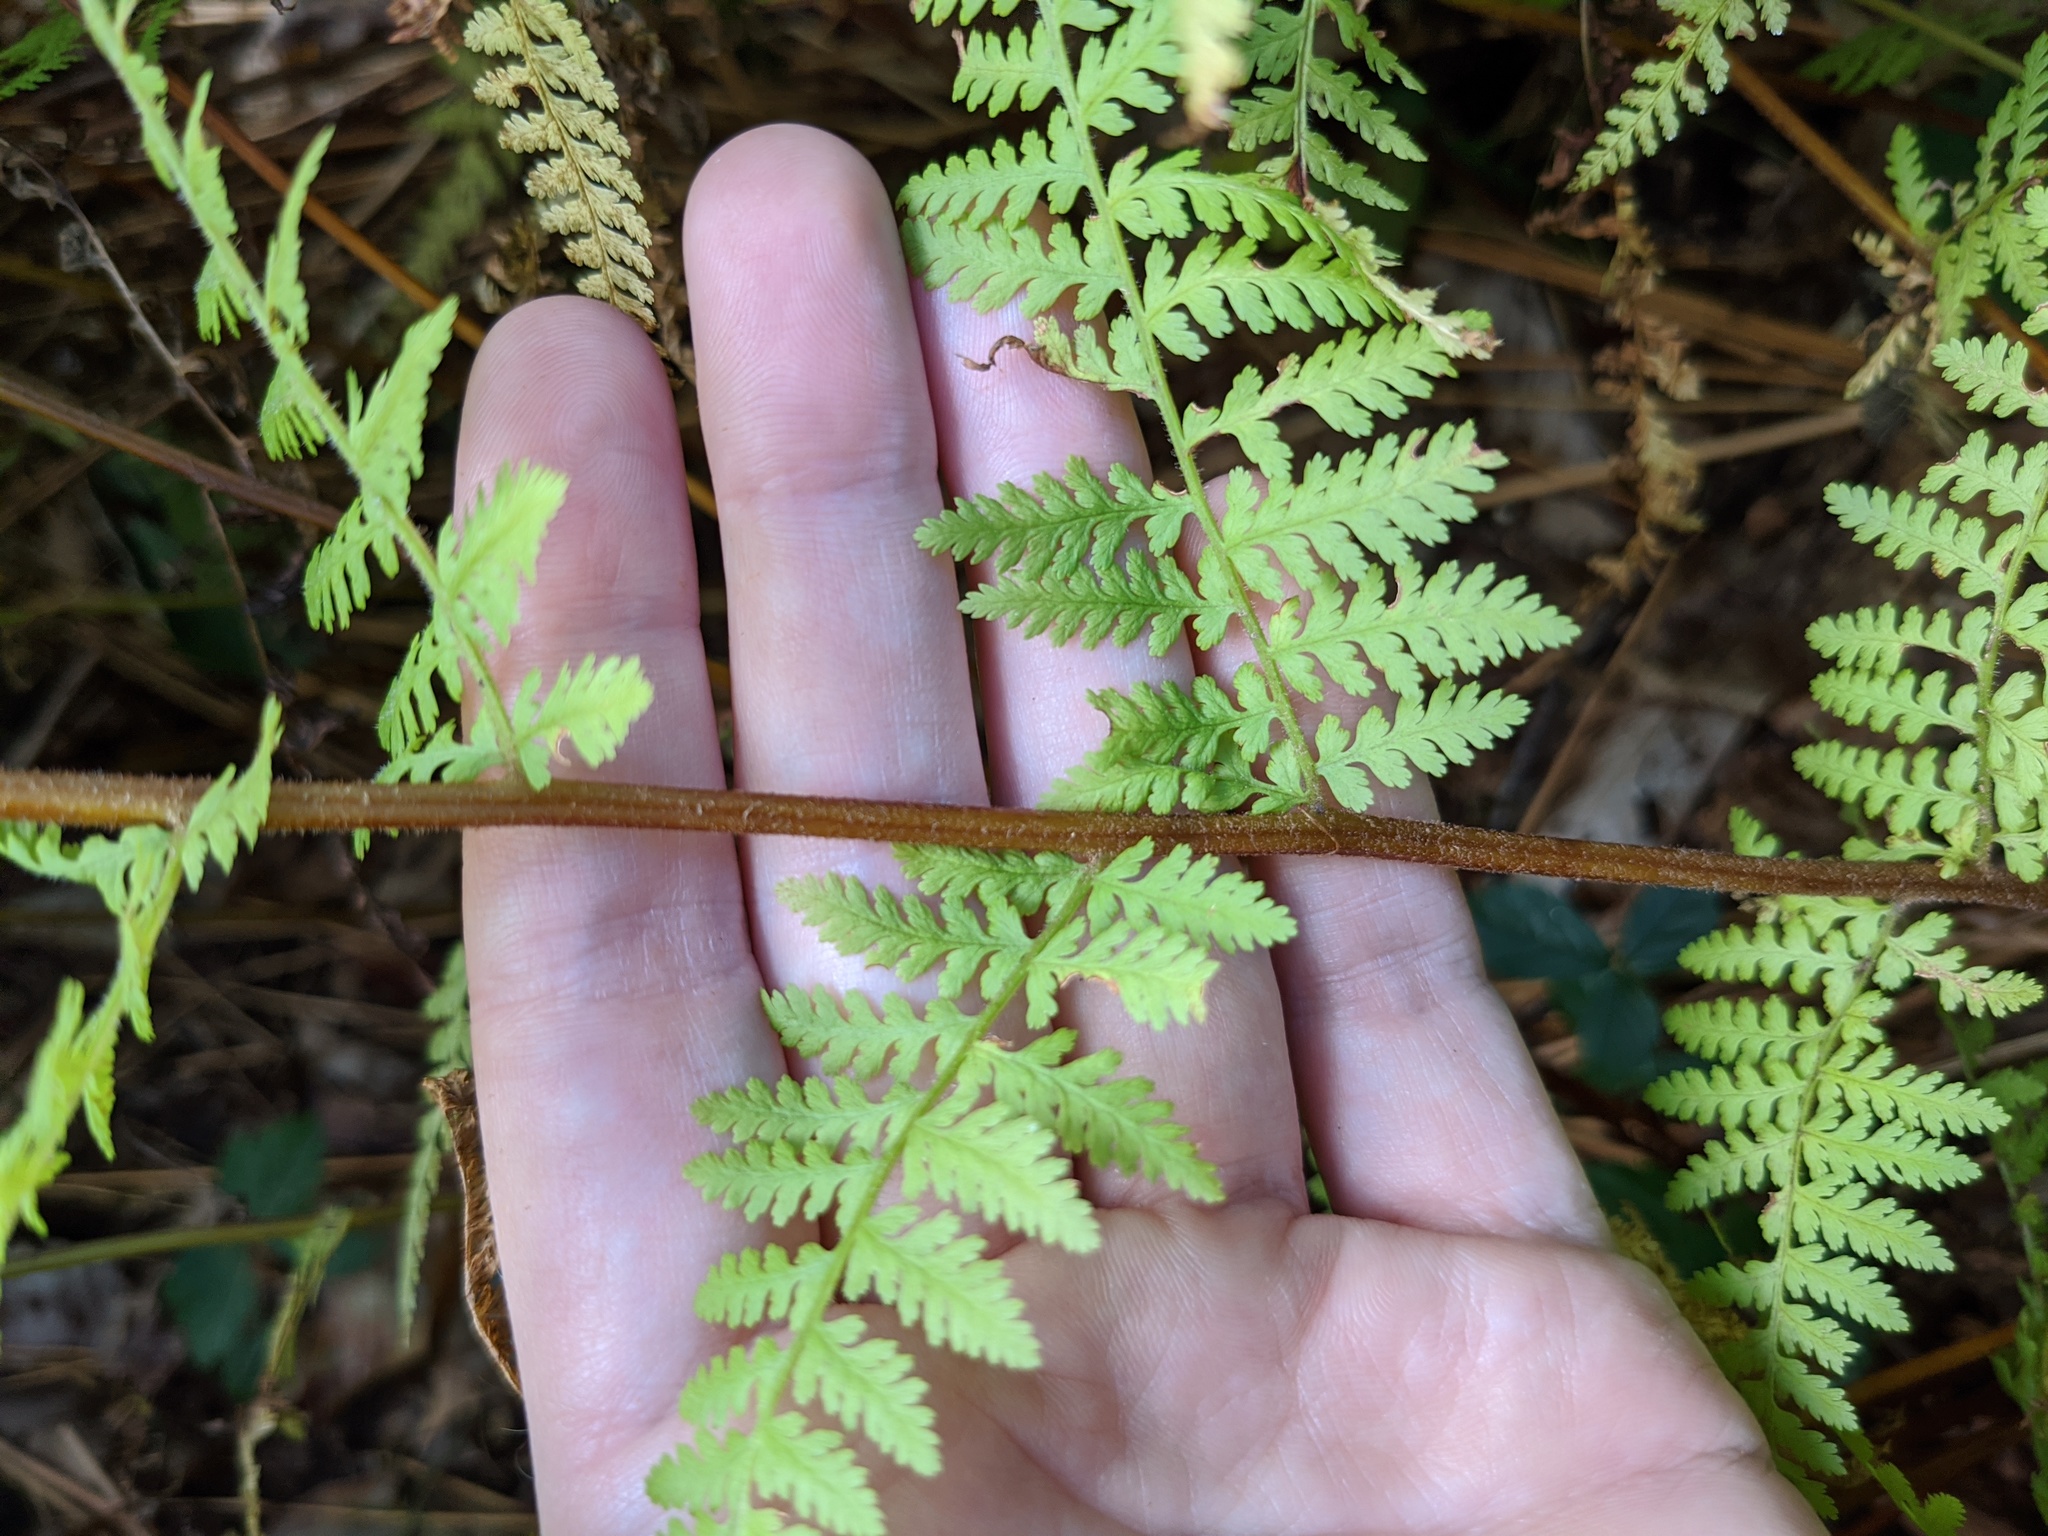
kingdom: Plantae
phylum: Tracheophyta
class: Polypodiopsida
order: Polypodiales
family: Dennstaedtiaceae
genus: Sitobolium
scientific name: Sitobolium punctilobum
